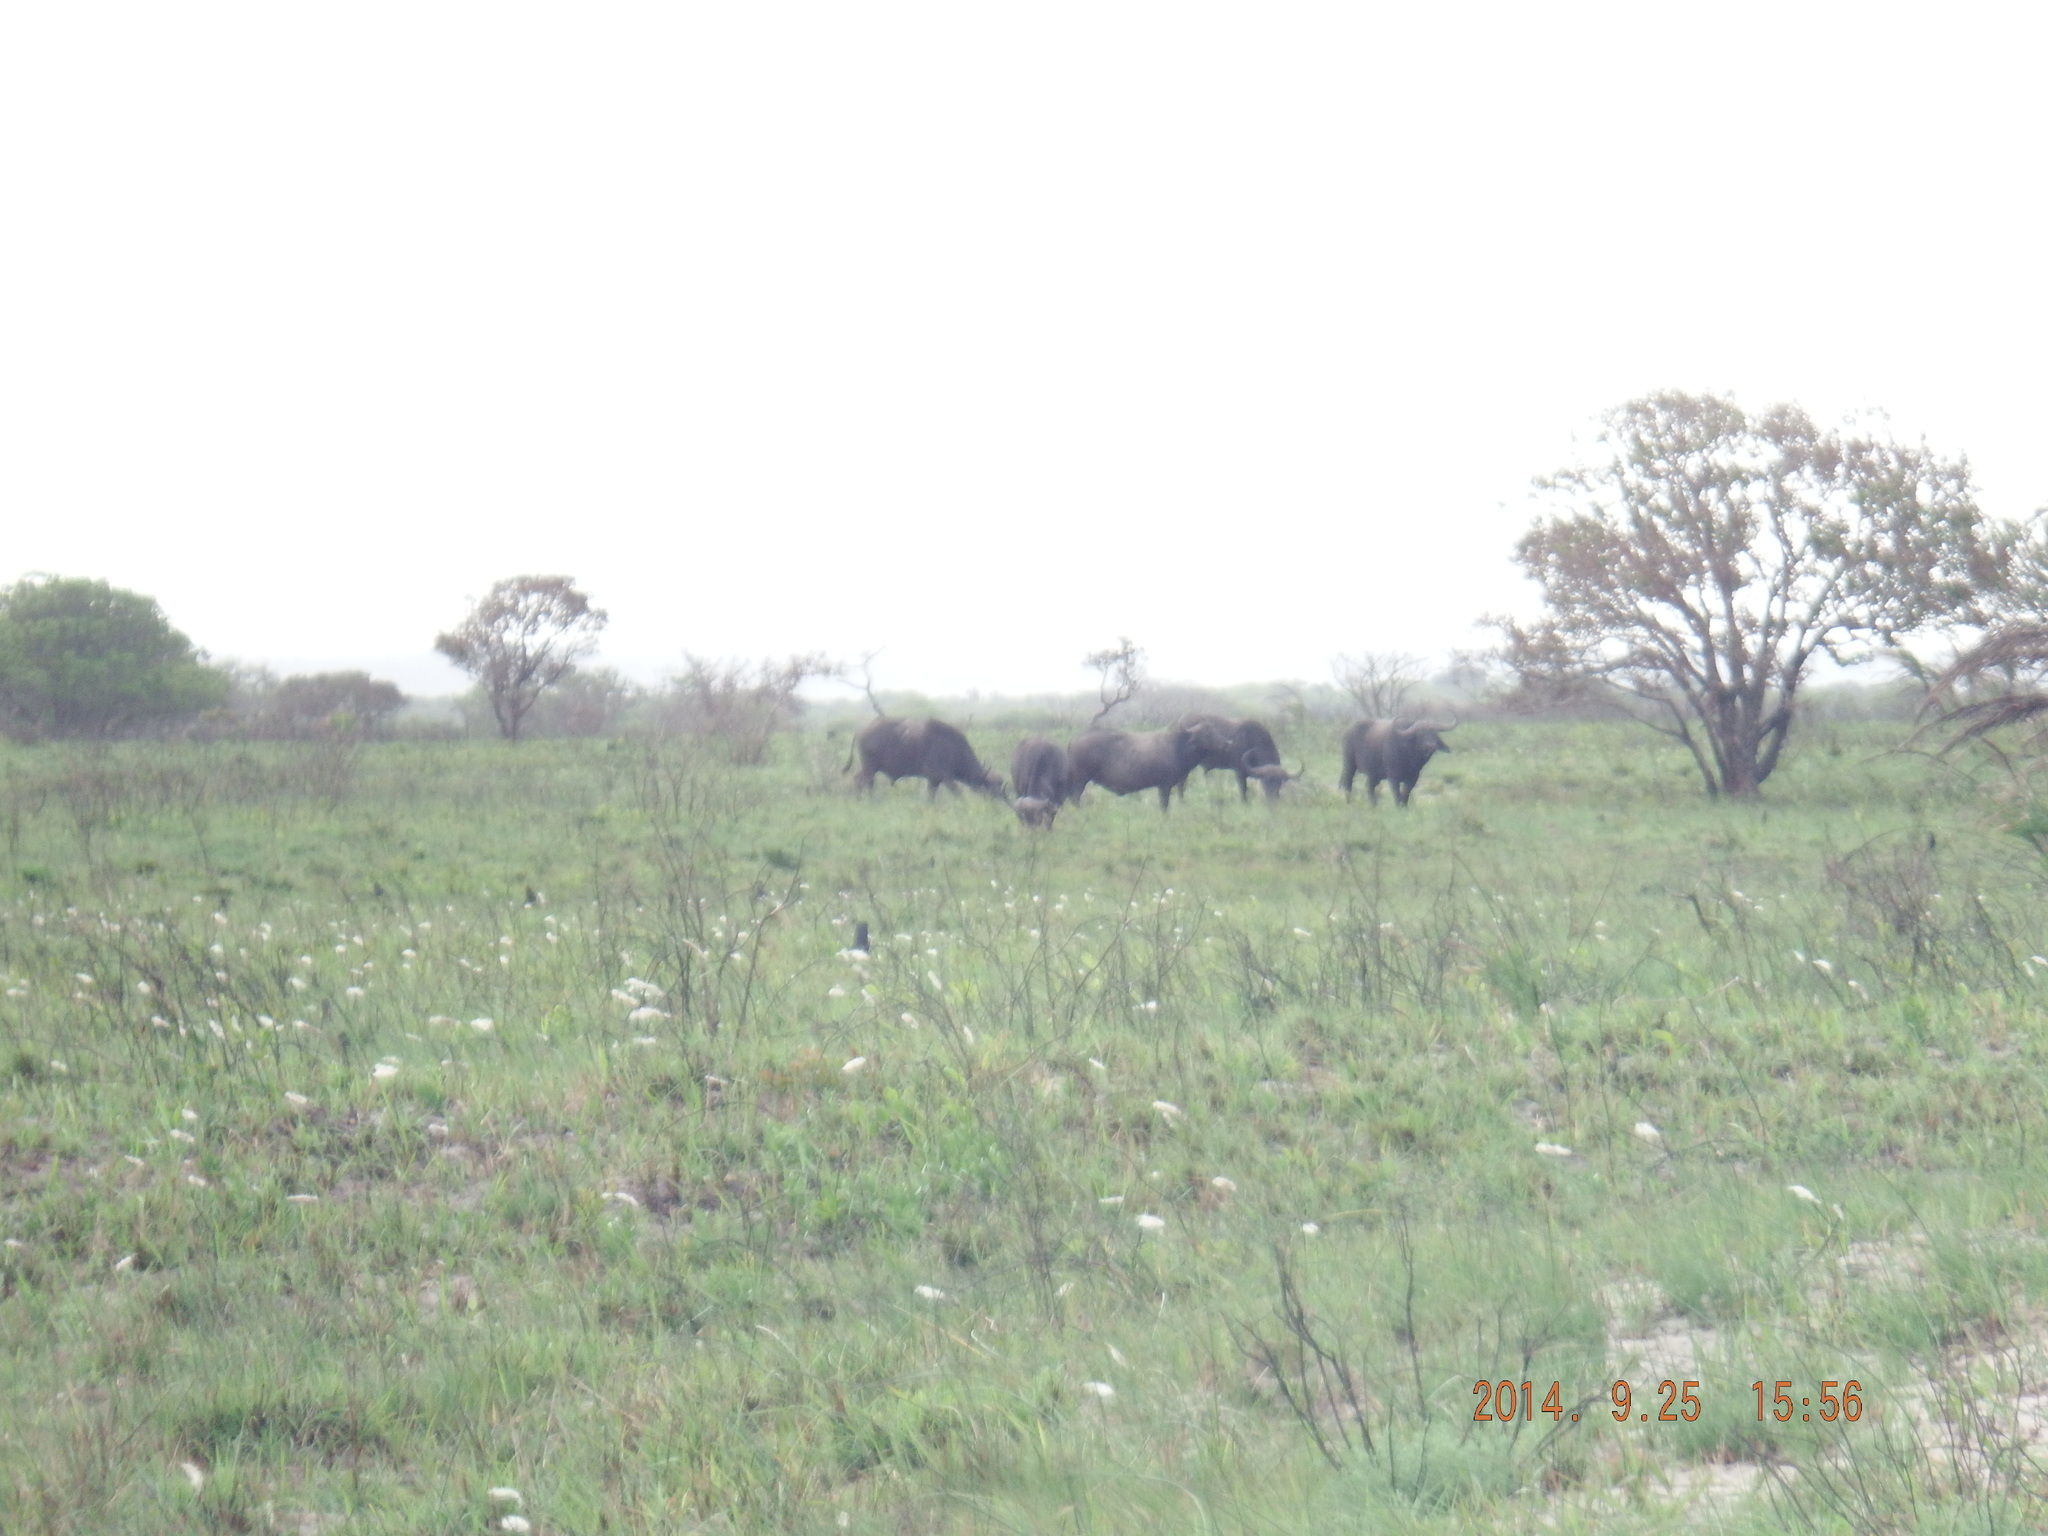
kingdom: Animalia
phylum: Chordata
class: Mammalia
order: Artiodactyla
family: Bovidae
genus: Syncerus
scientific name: Syncerus caffer
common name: African buffalo
